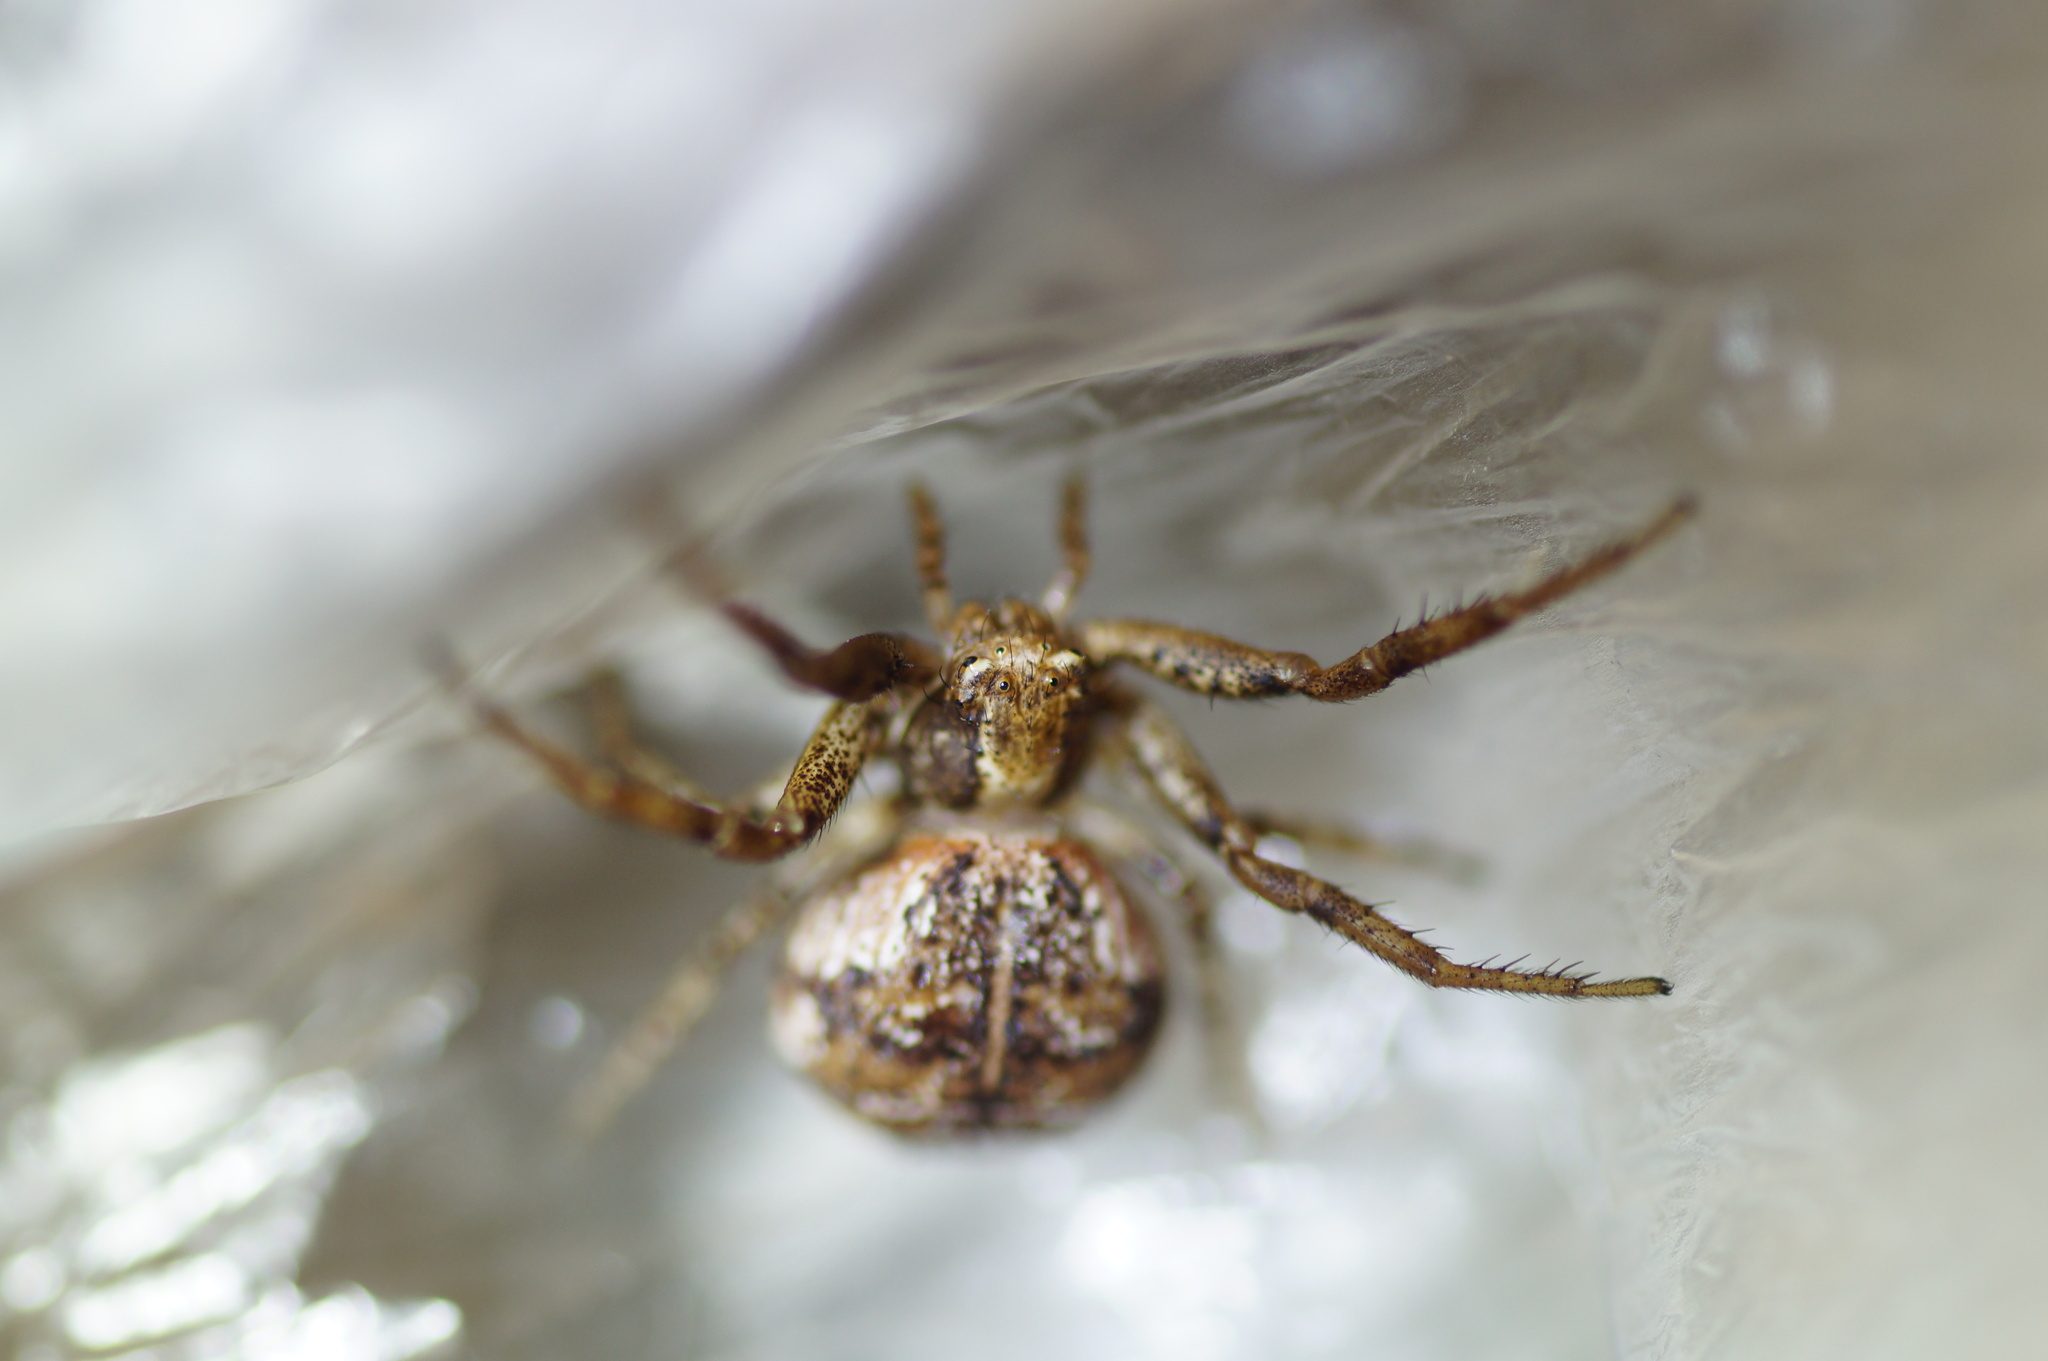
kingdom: Animalia
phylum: Arthropoda
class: Arachnida
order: Araneae
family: Thomisidae
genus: Xysticus
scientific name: Xysticus audax
